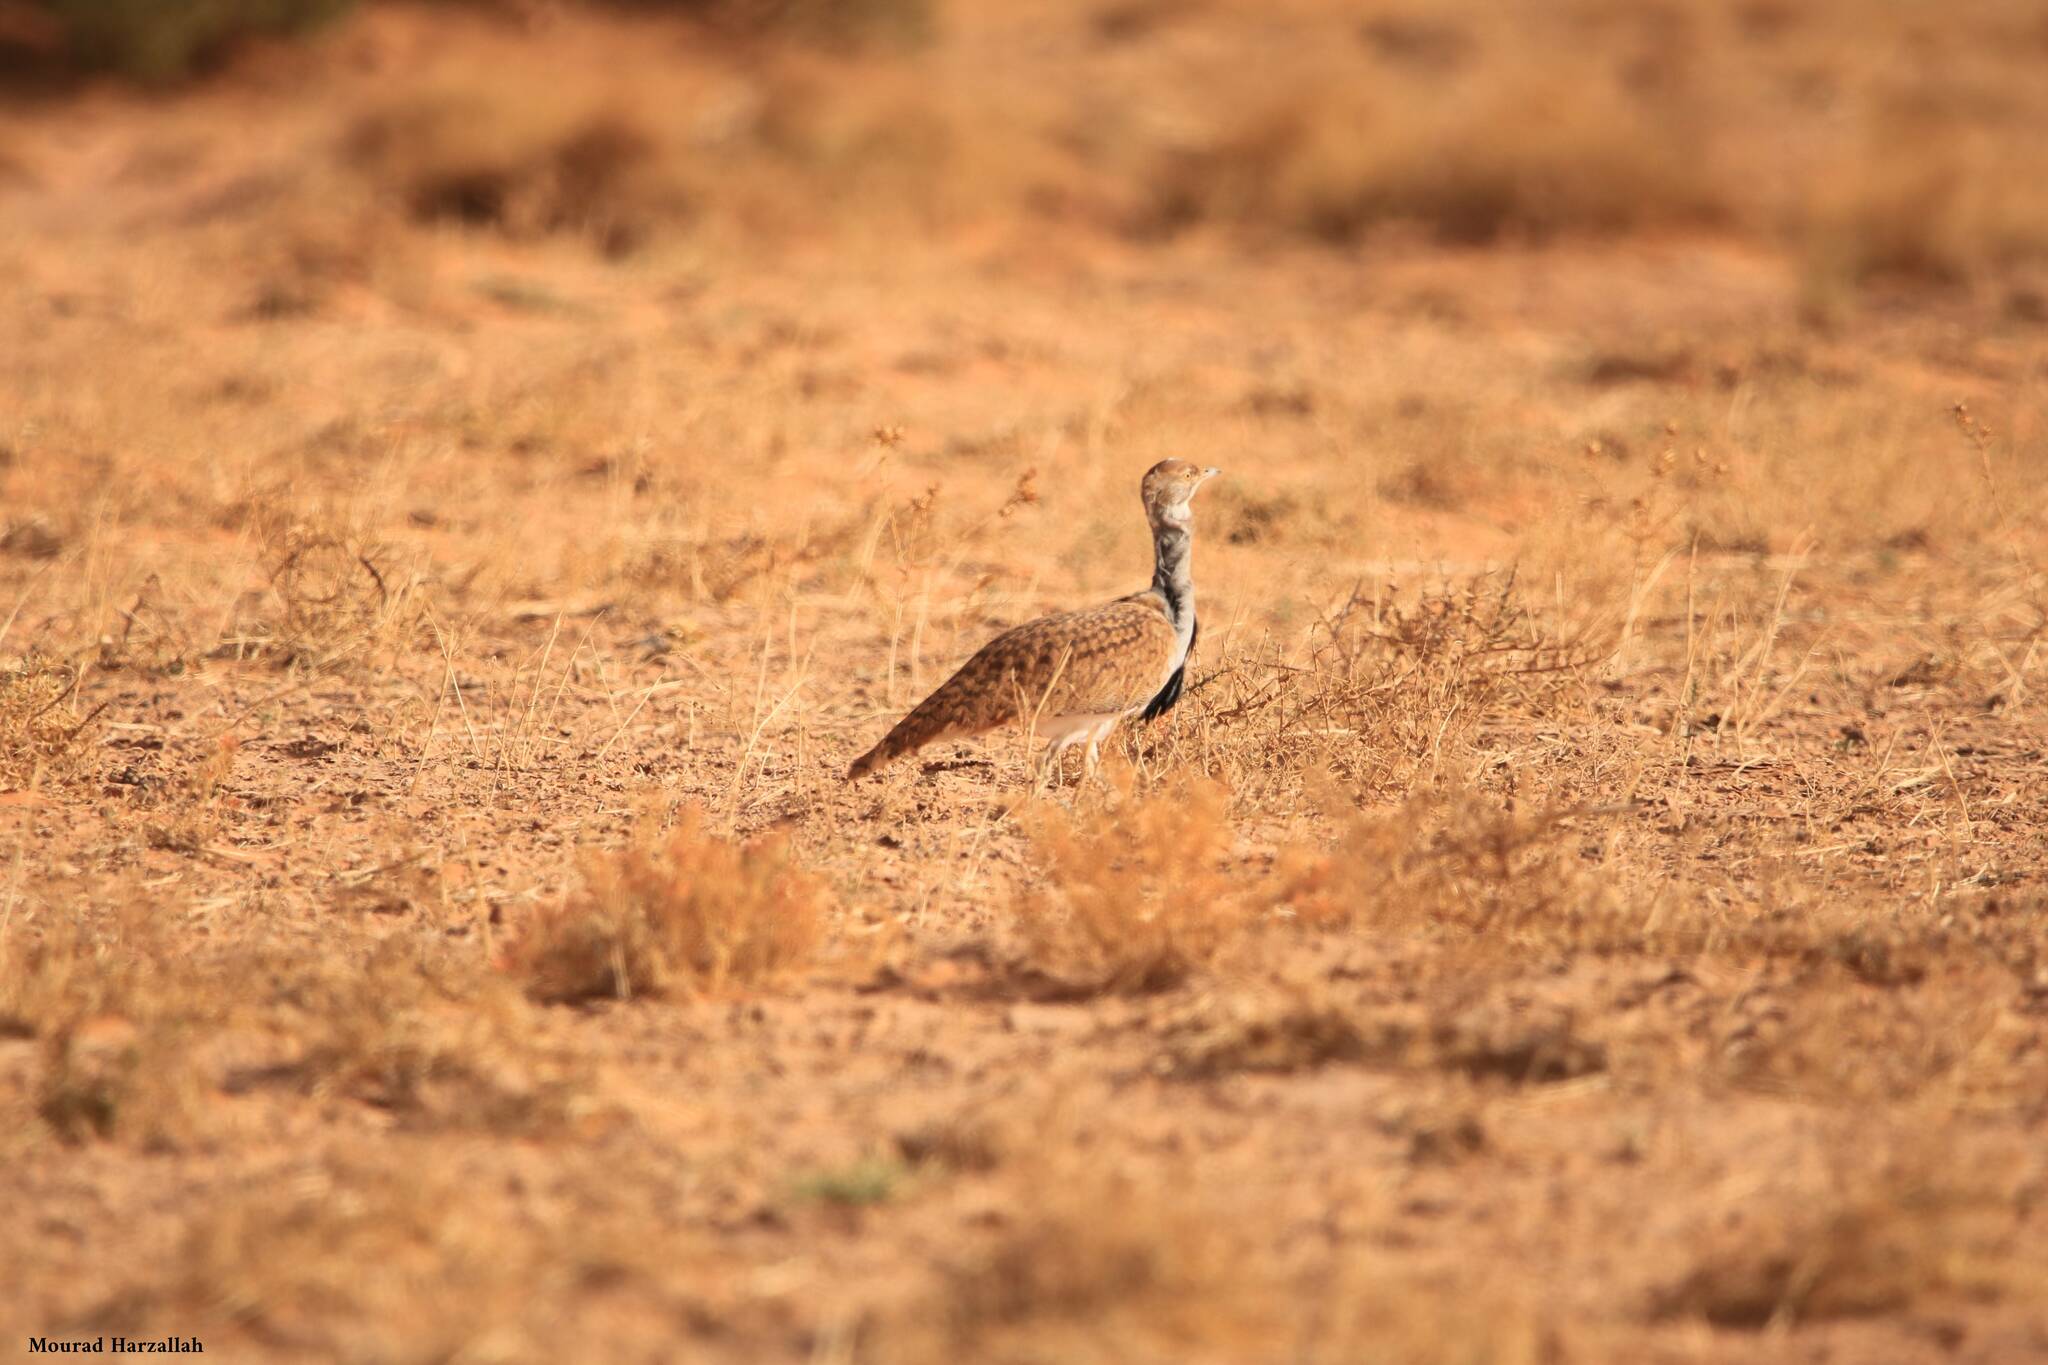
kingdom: Animalia
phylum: Chordata
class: Aves
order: Otidiformes
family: Otididae
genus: Chlamydotis
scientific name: Chlamydotis undulata
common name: Houbara bustard
